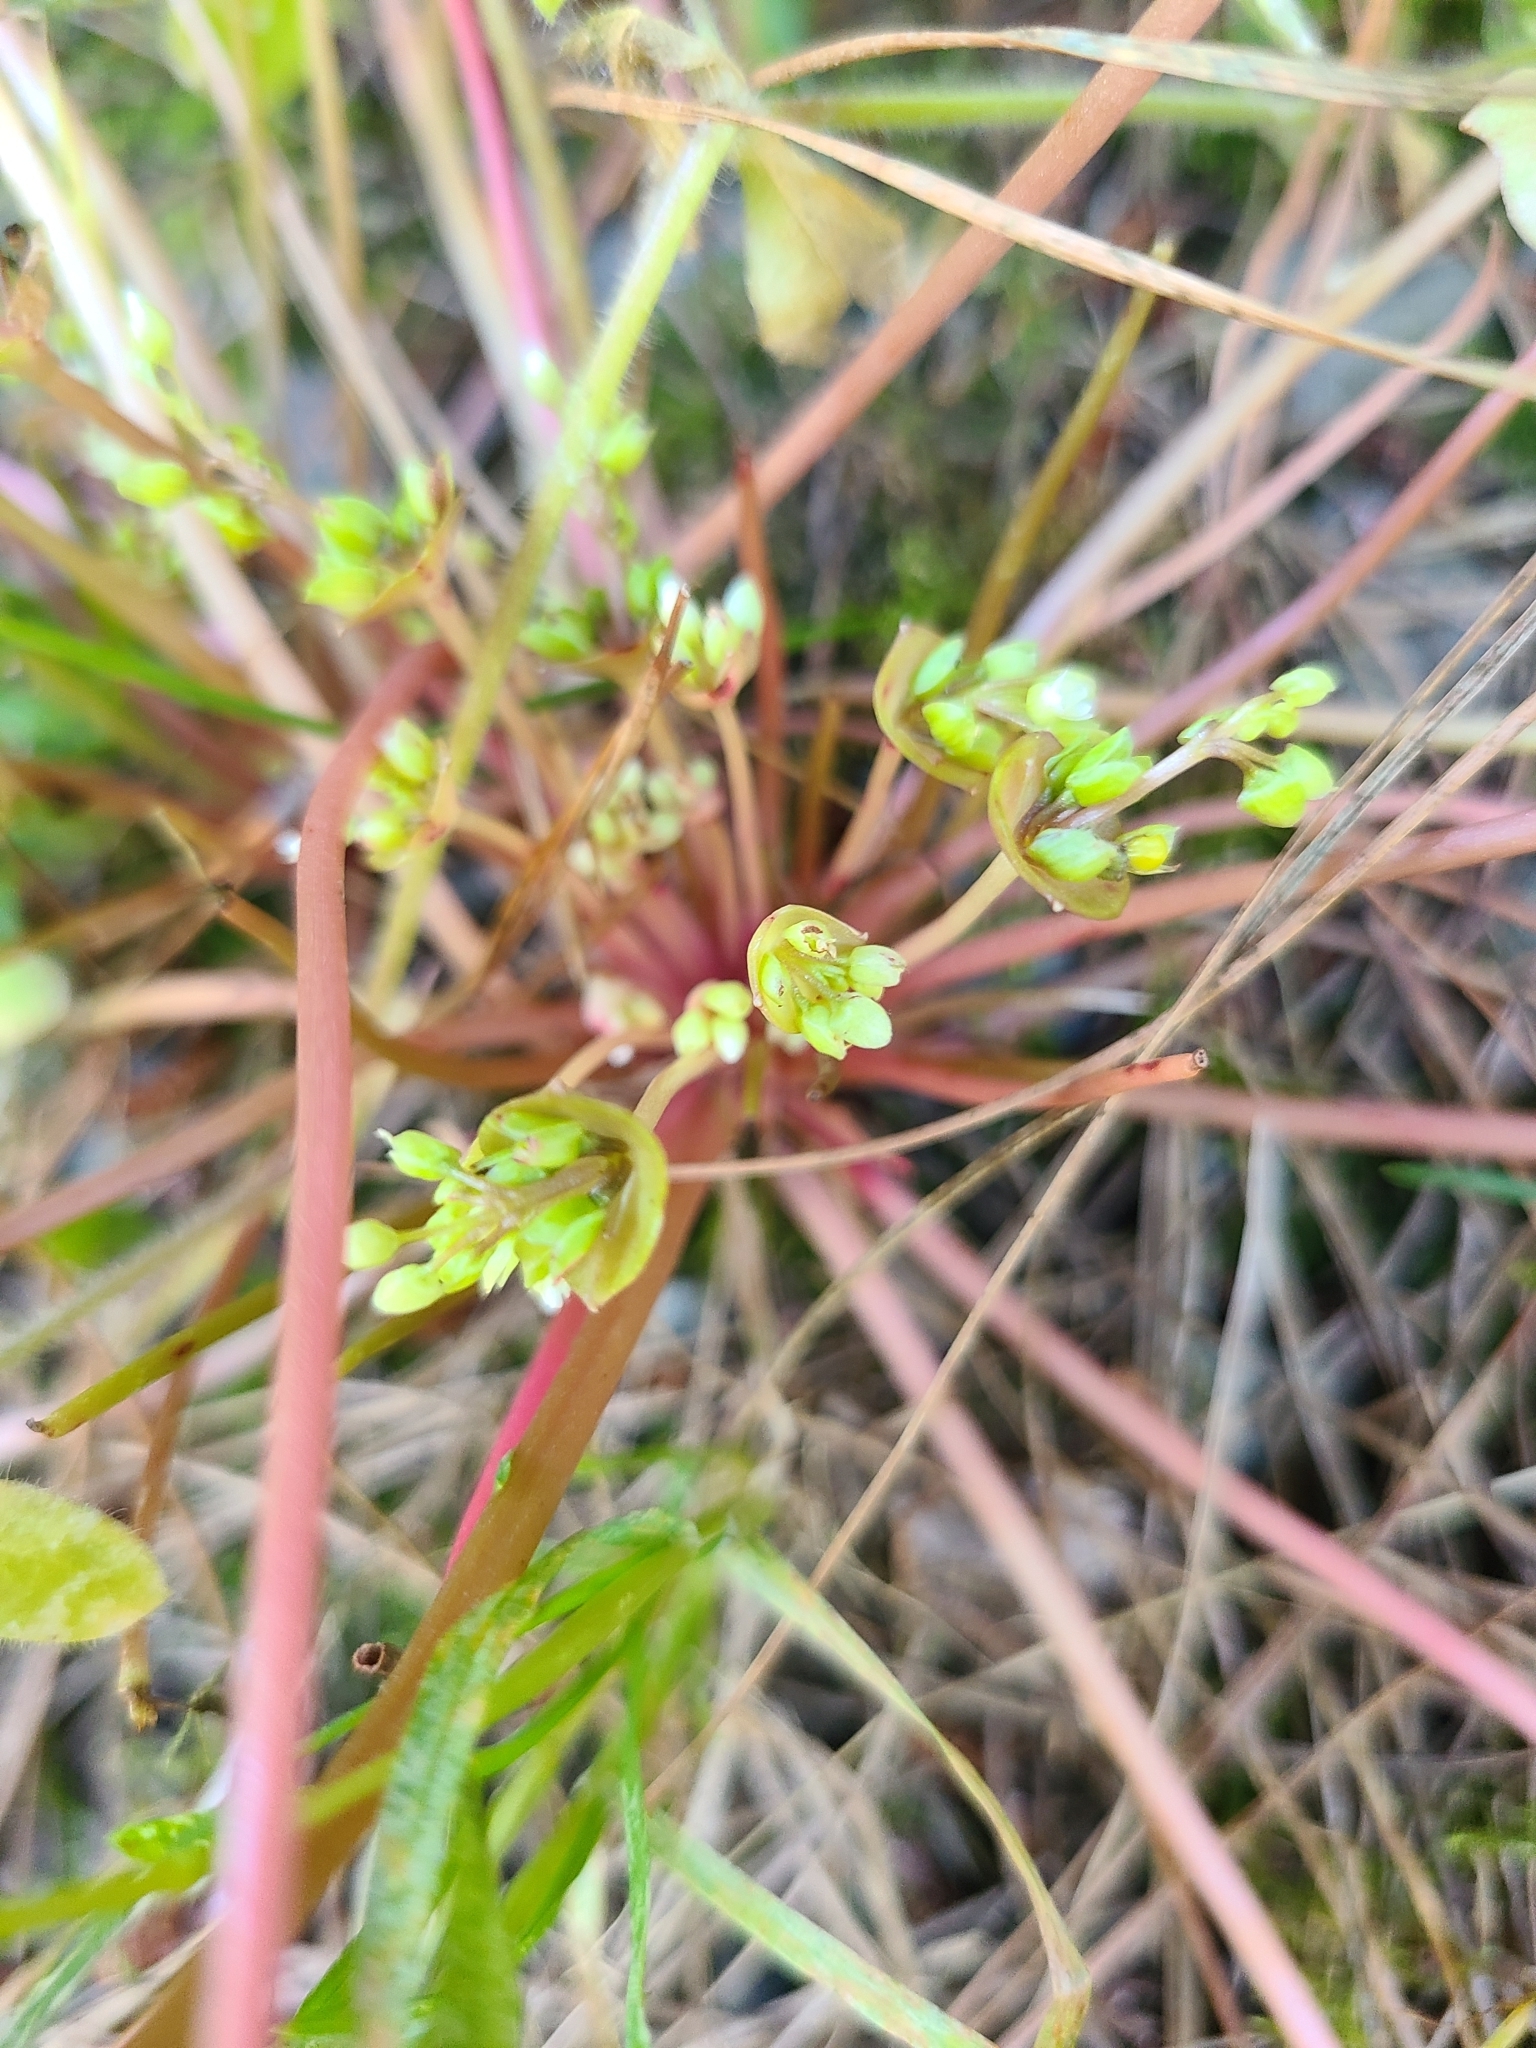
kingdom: Plantae
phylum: Tracheophyta
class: Magnoliopsida
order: Caryophyllales
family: Montiaceae
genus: Claytonia
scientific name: Claytonia perfoliata
